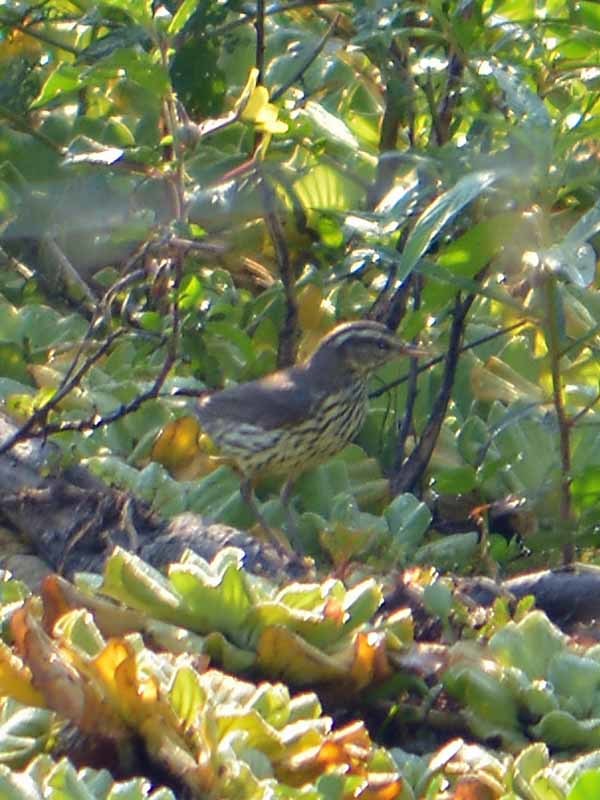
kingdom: Animalia
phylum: Chordata
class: Aves
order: Passeriformes
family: Parulidae
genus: Parkesia
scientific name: Parkesia noveboracensis
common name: Northern waterthrush
